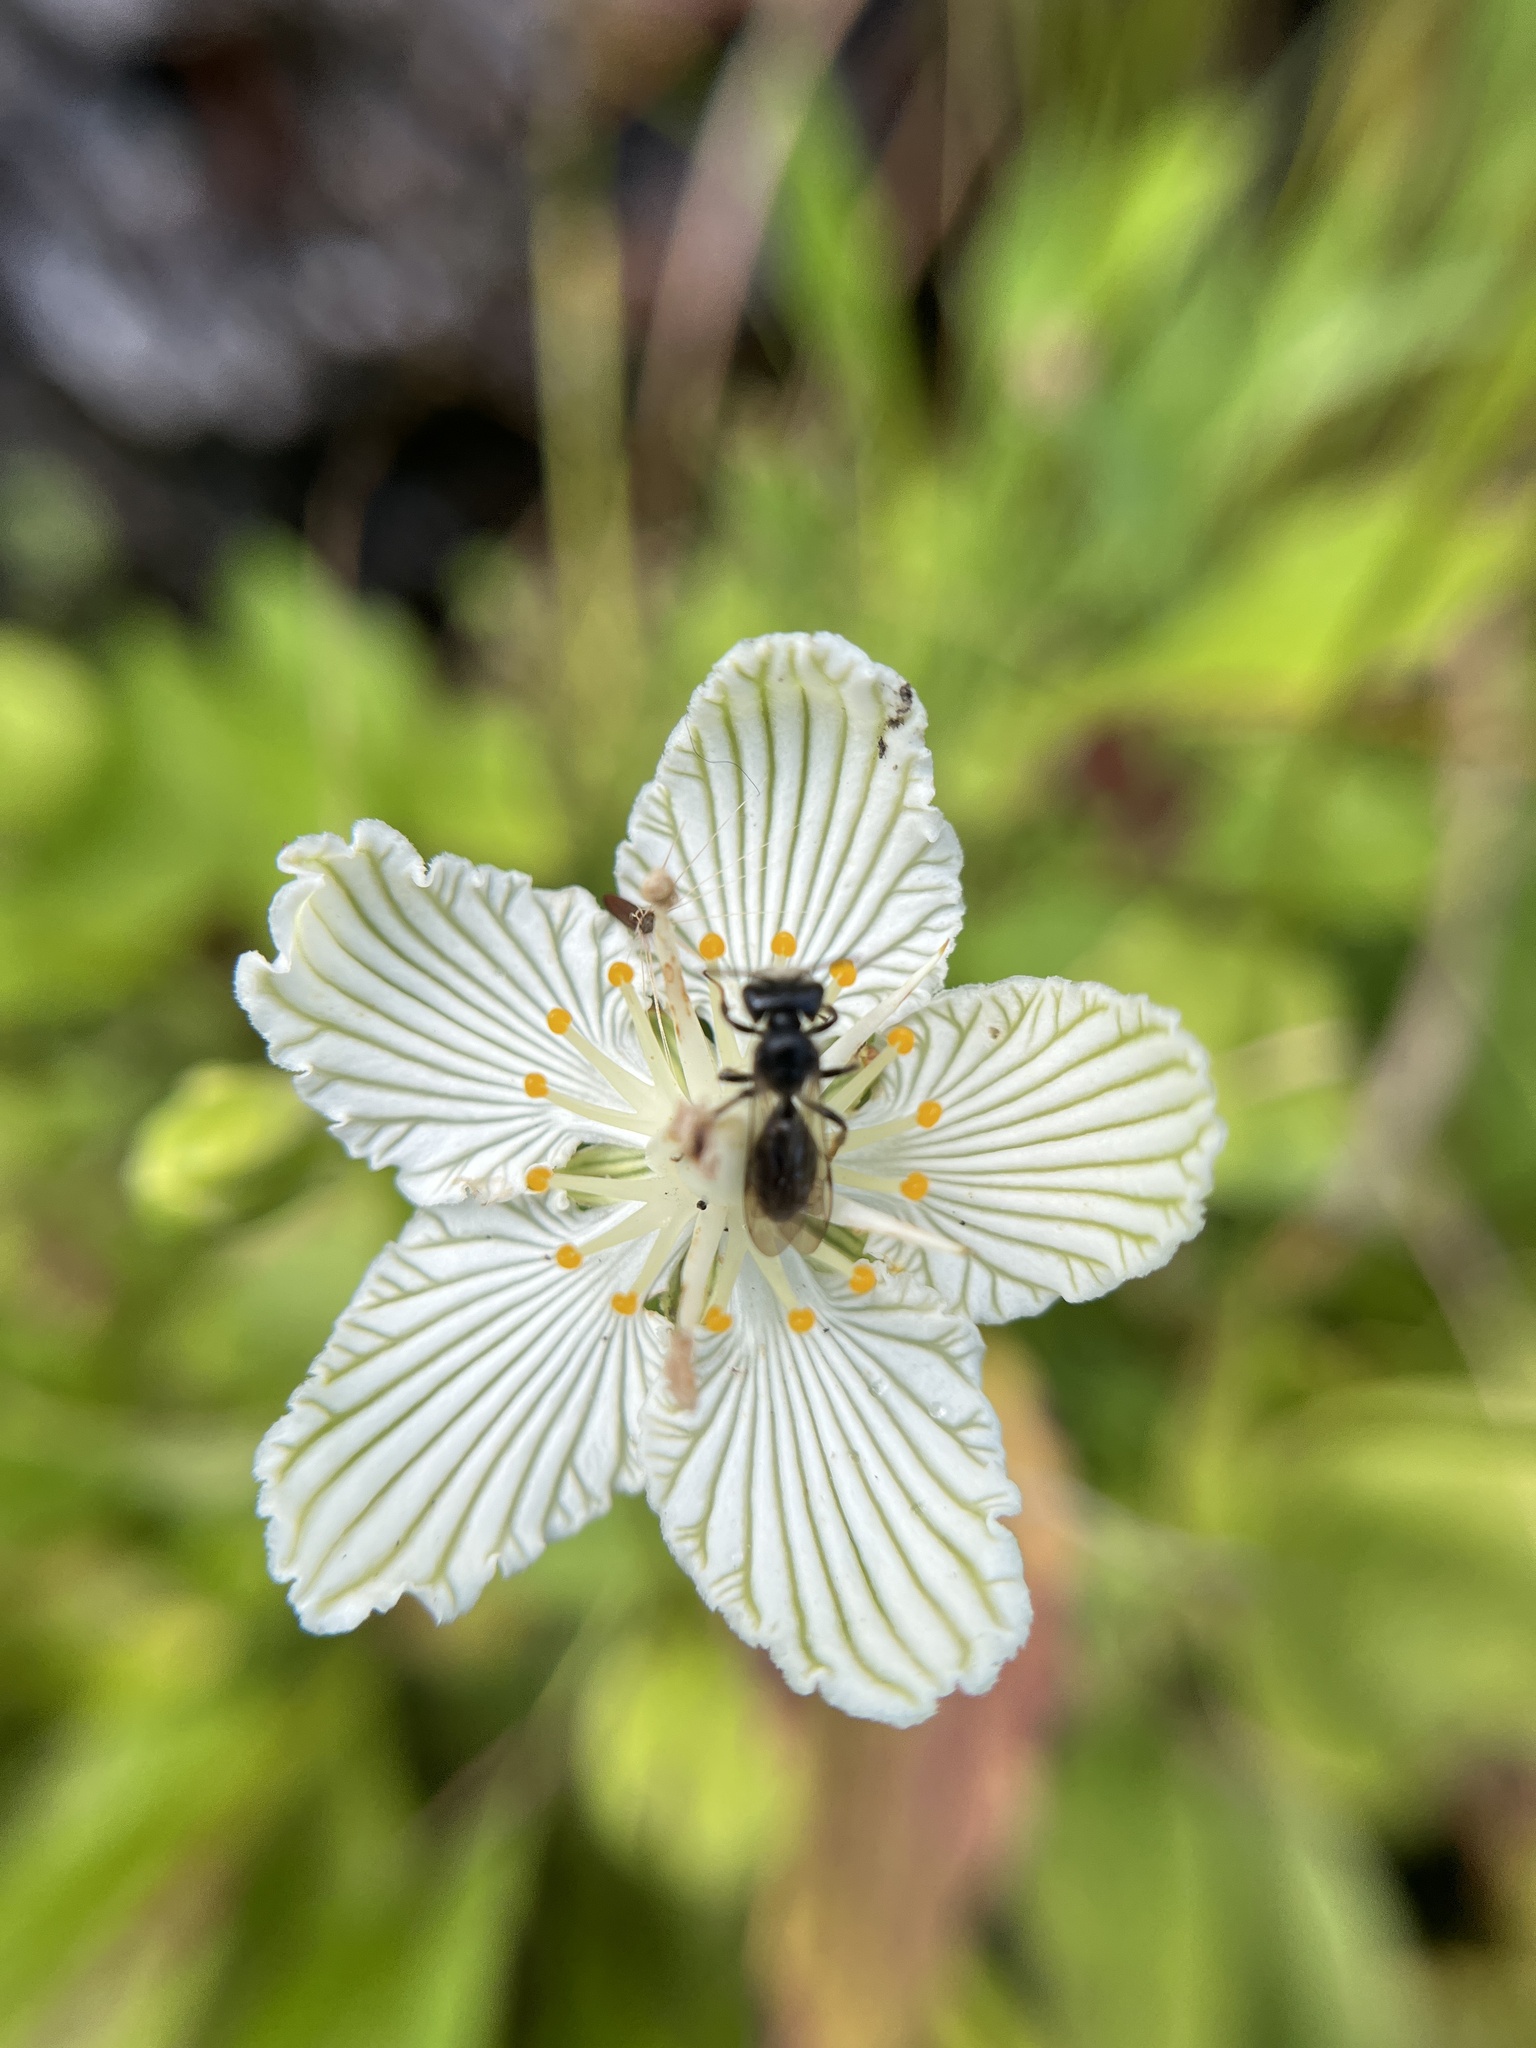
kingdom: Plantae
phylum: Tracheophyta
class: Magnoliopsida
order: Celastrales
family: Parnassiaceae
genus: Parnassia
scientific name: Parnassia asarifolia
